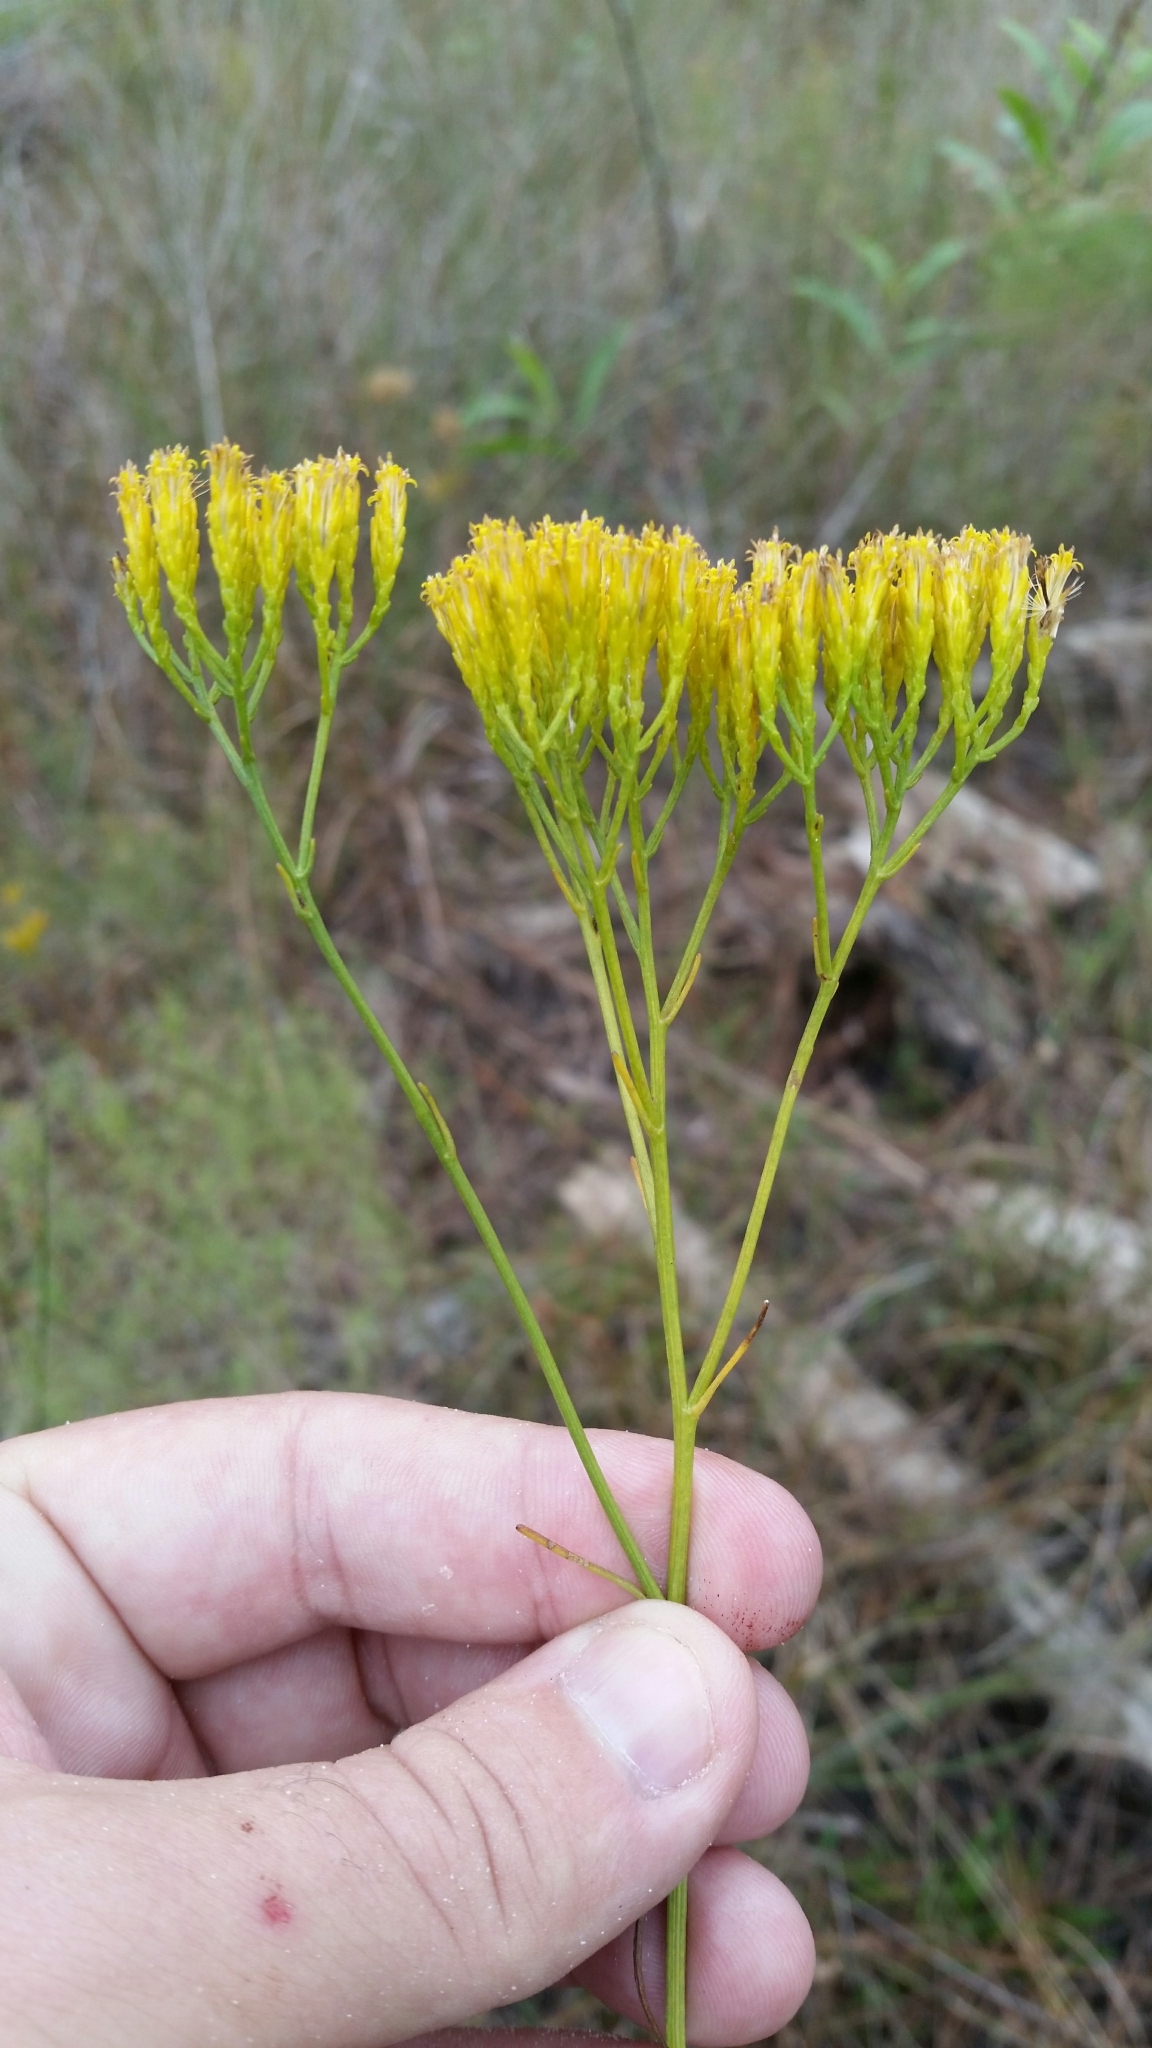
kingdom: Plantae
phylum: Tracheophyta
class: Magnoliopsida
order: Asterales
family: Asteraceae
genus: Bigelowia
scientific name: Bigelowia australis
